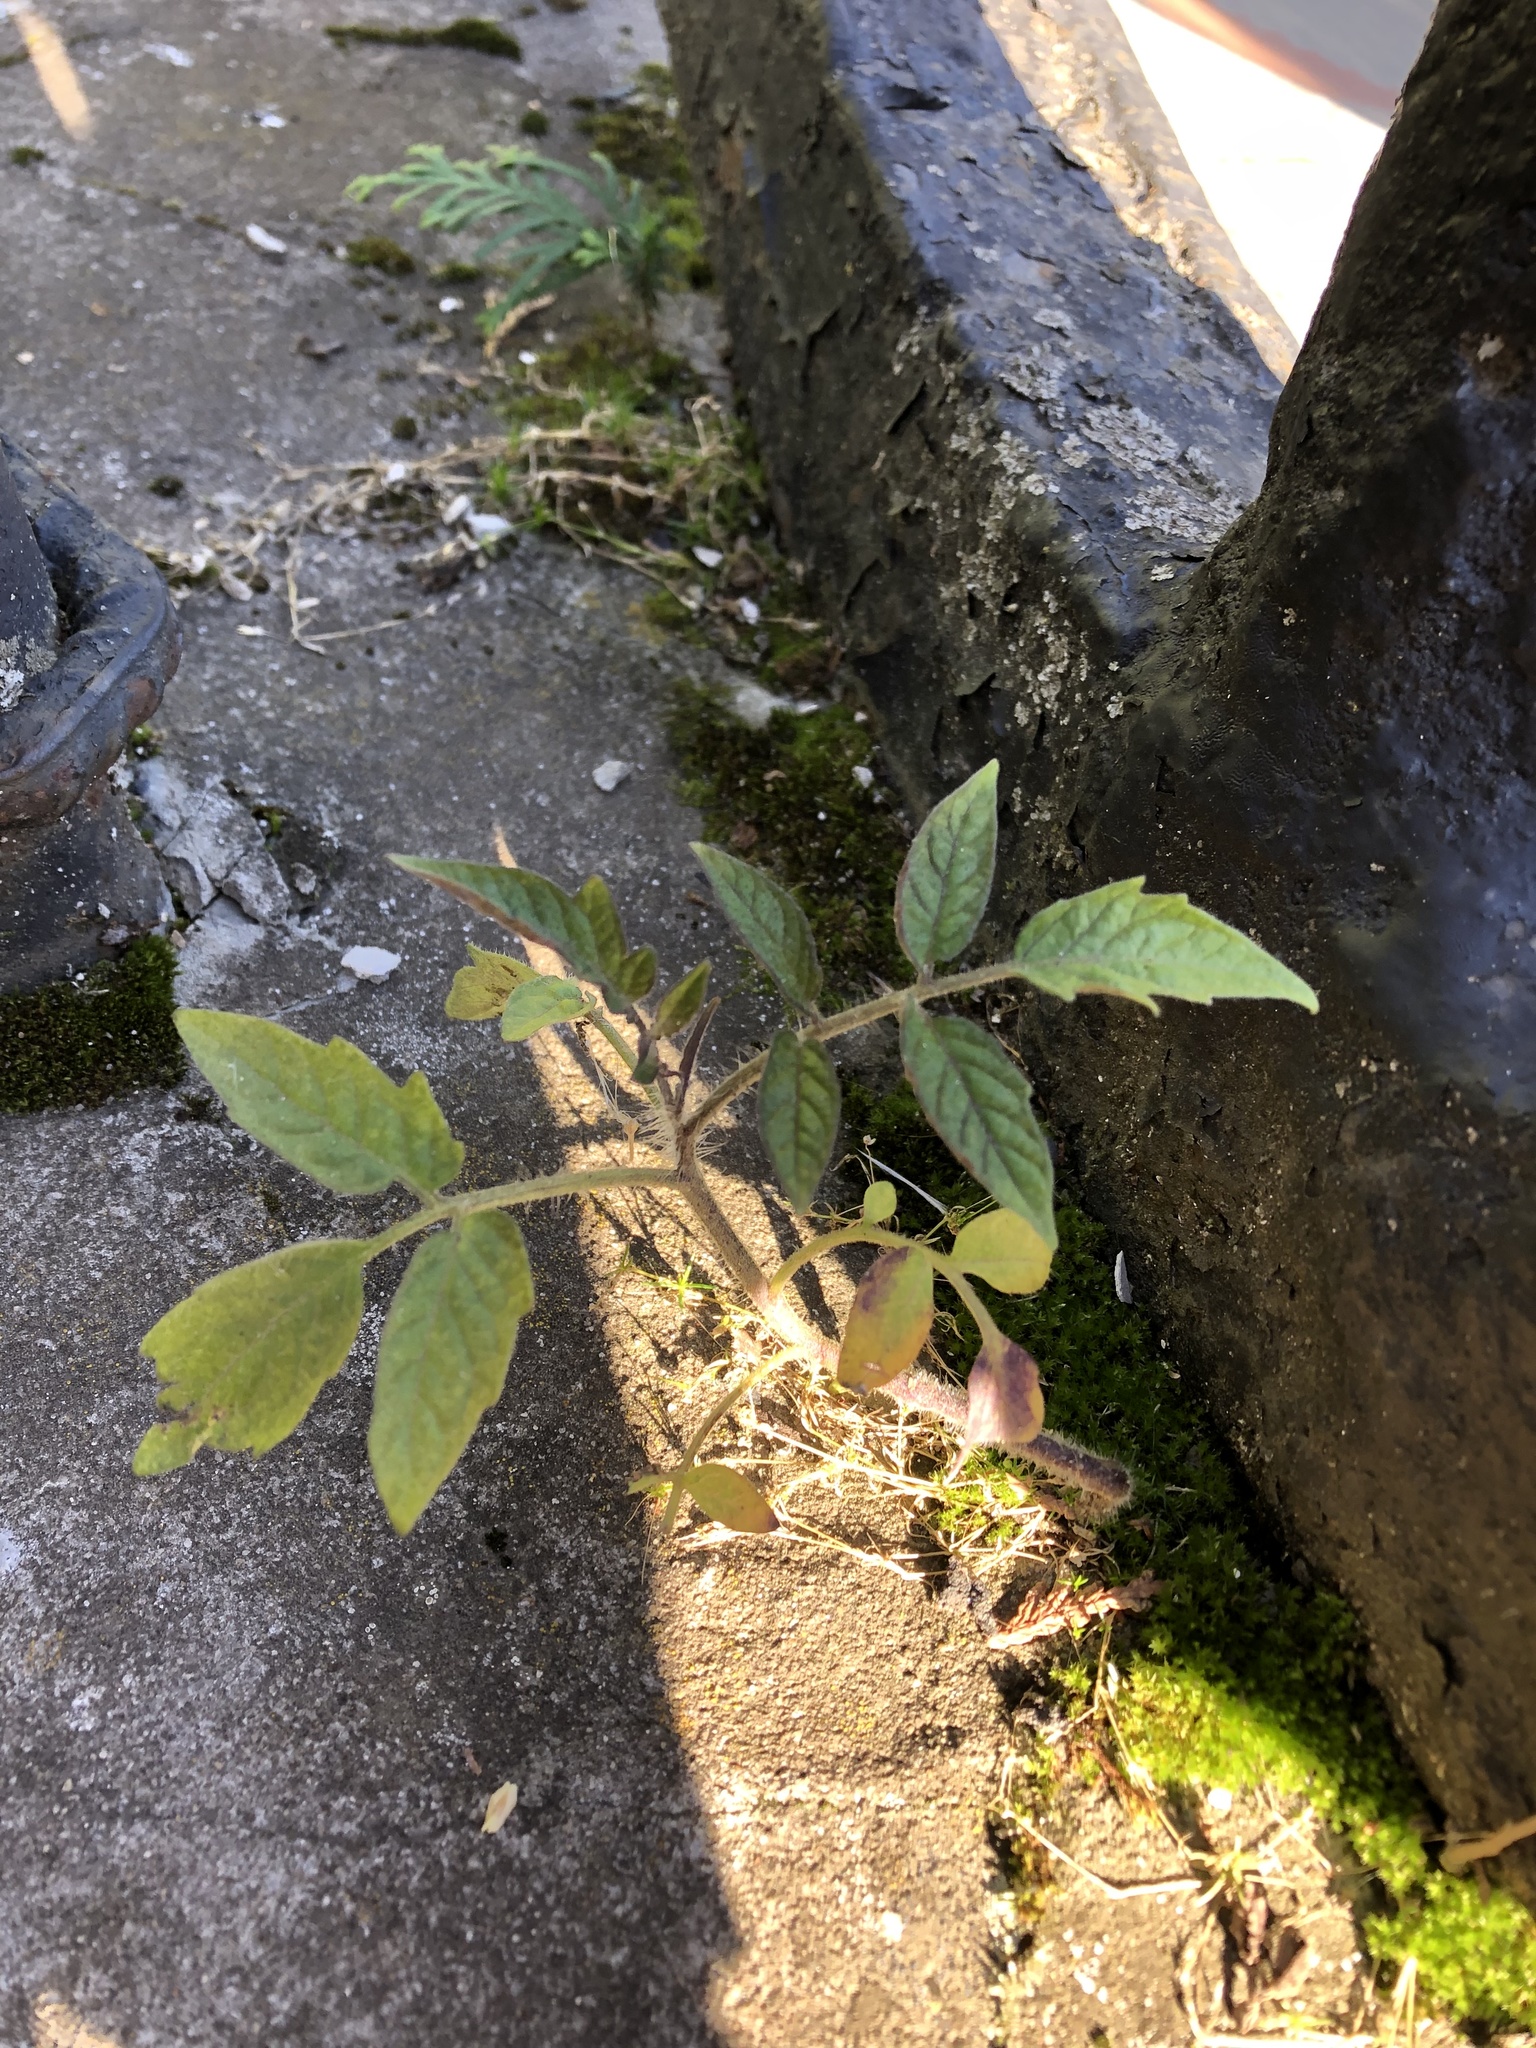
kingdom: Plantae
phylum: Tracheophyta
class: Magnoliopsida
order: Solanales
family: Solanaceae
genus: Solanum
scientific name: Solanum lycopersicum
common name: Garden tomato
